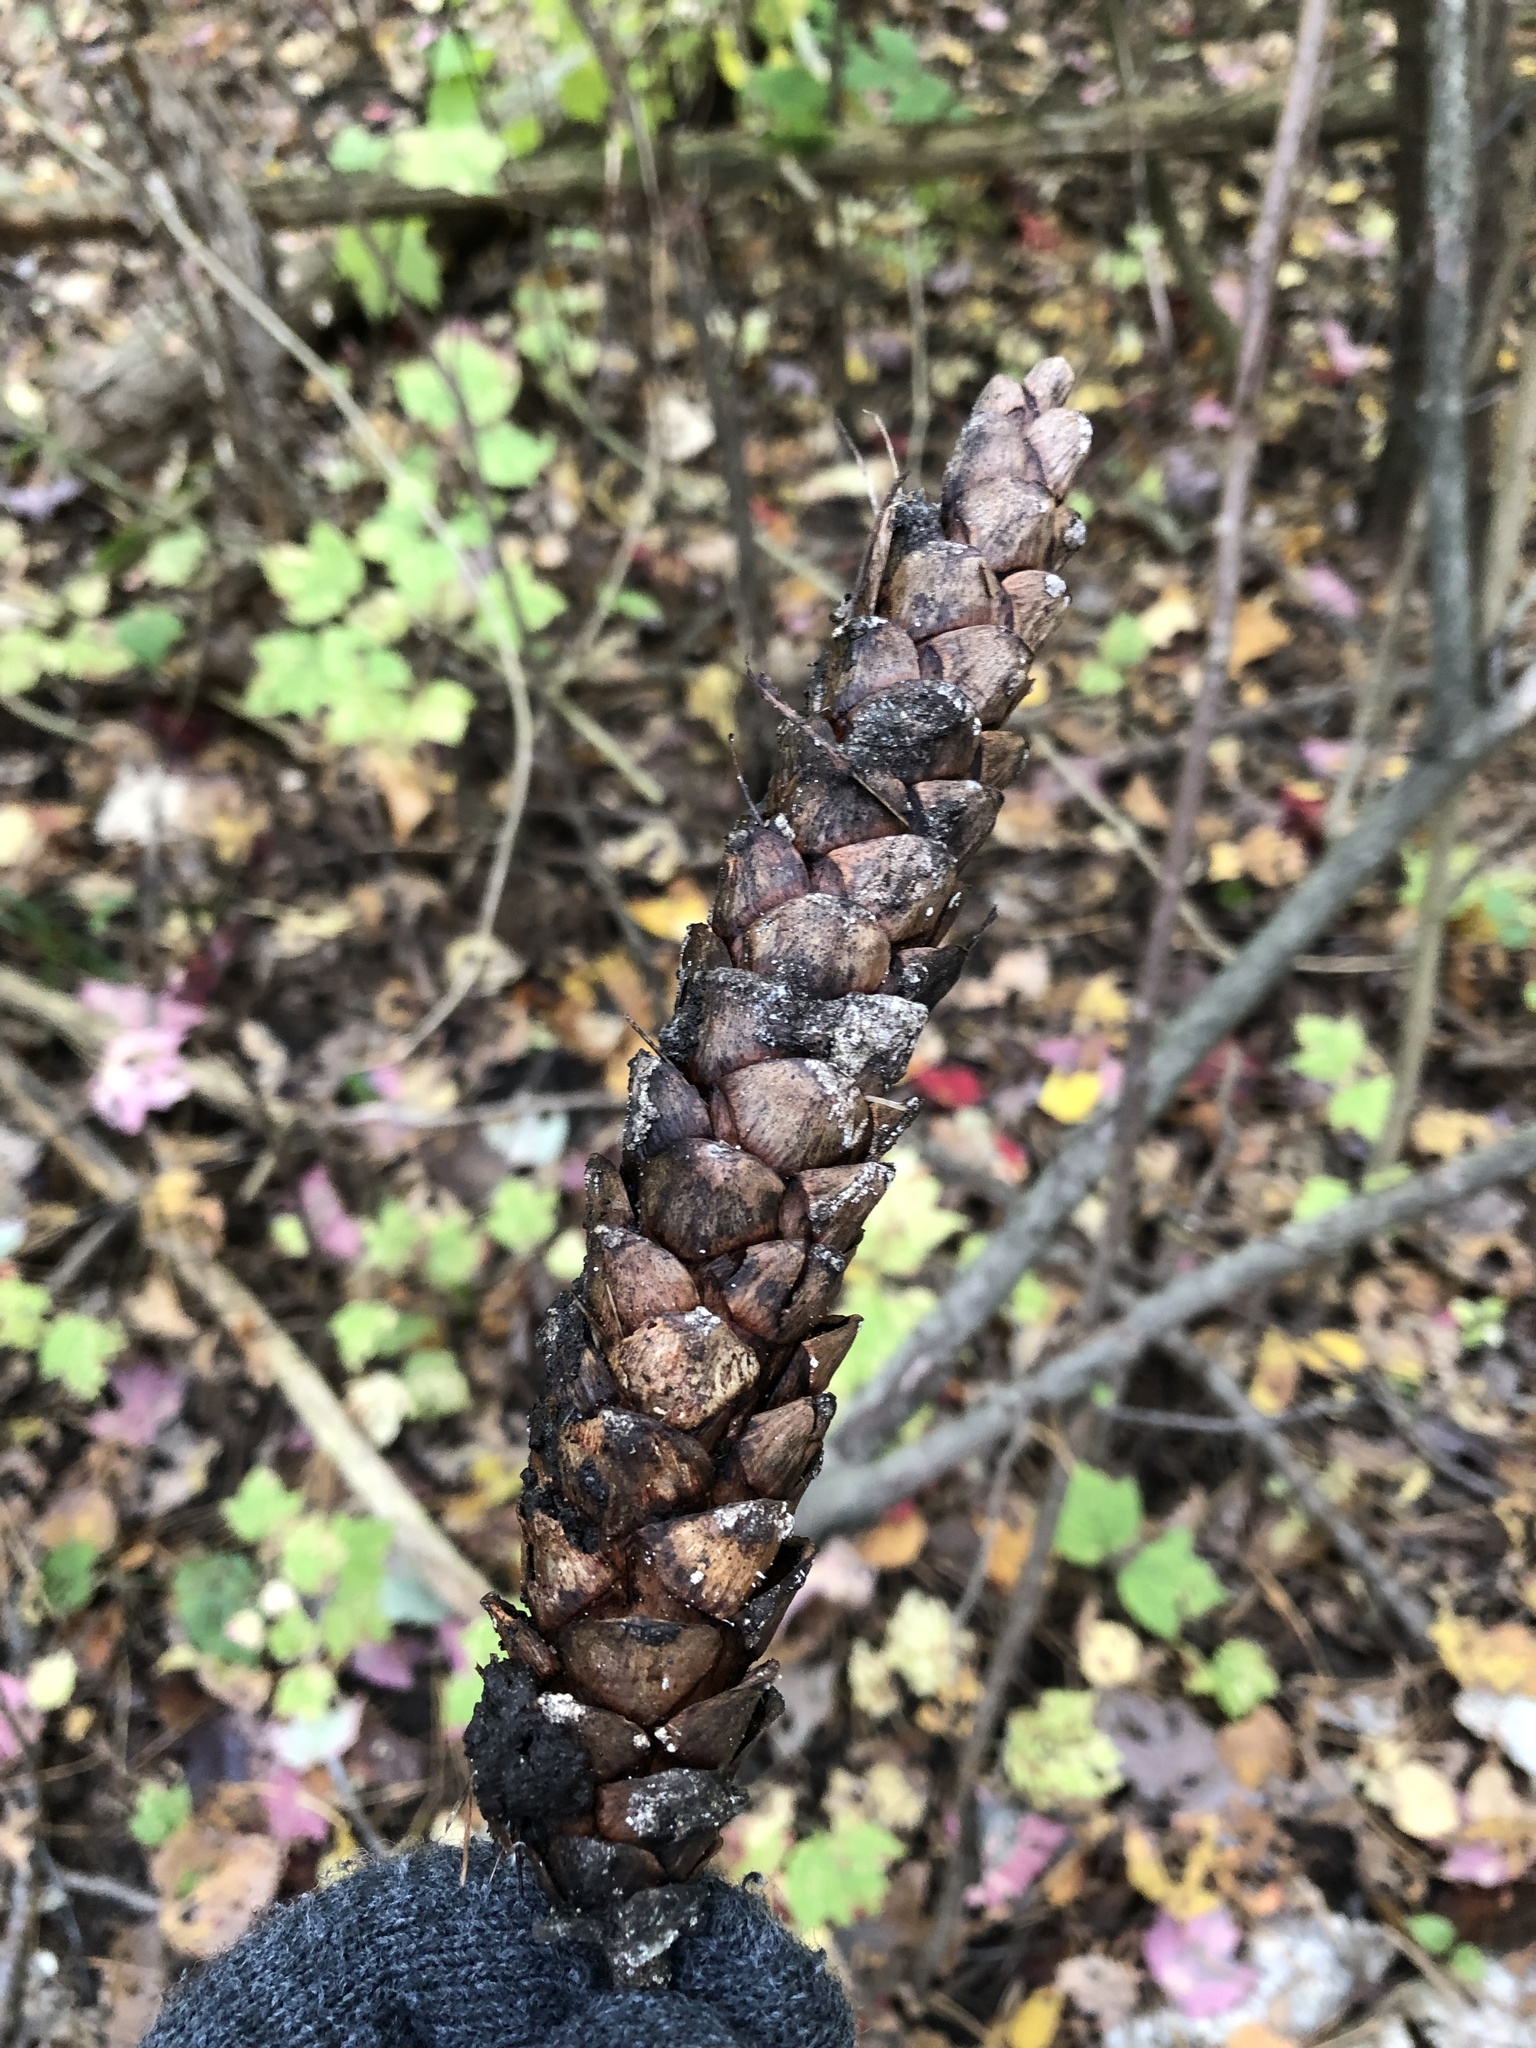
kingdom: Plantae
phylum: Tracheophyta
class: Pinopsida
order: Pinales
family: Pinaceae
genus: Pinus
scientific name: Pinus strobus
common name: Weymouth pine
